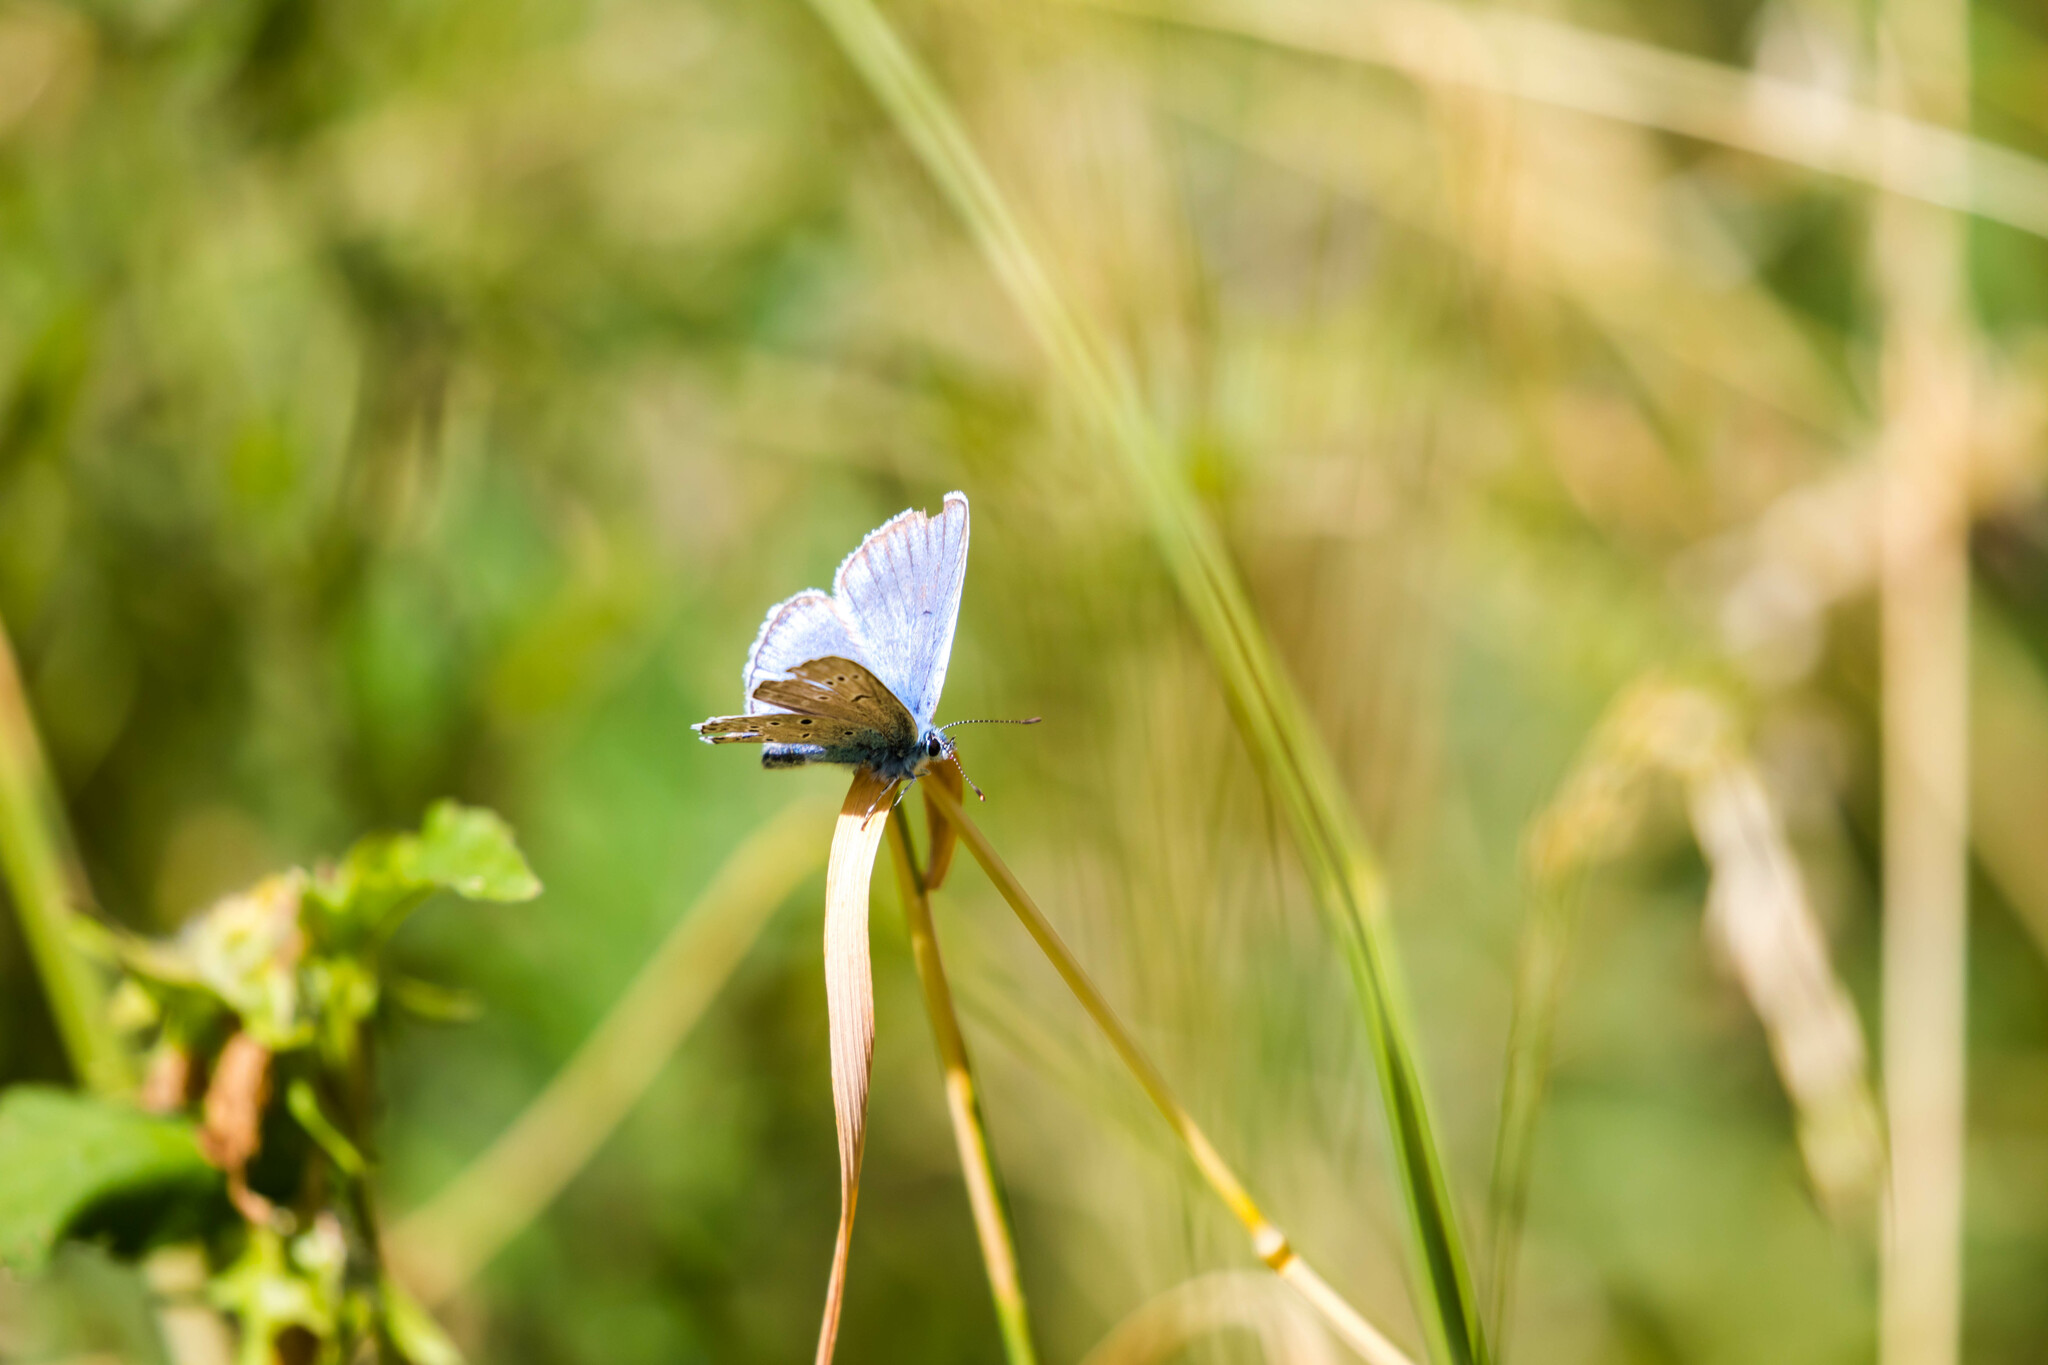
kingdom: Animalia
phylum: Arthropoda
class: Insecta
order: Lepidoptera
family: Lycaenidae
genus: Plebejus
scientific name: Plebejus amanda
